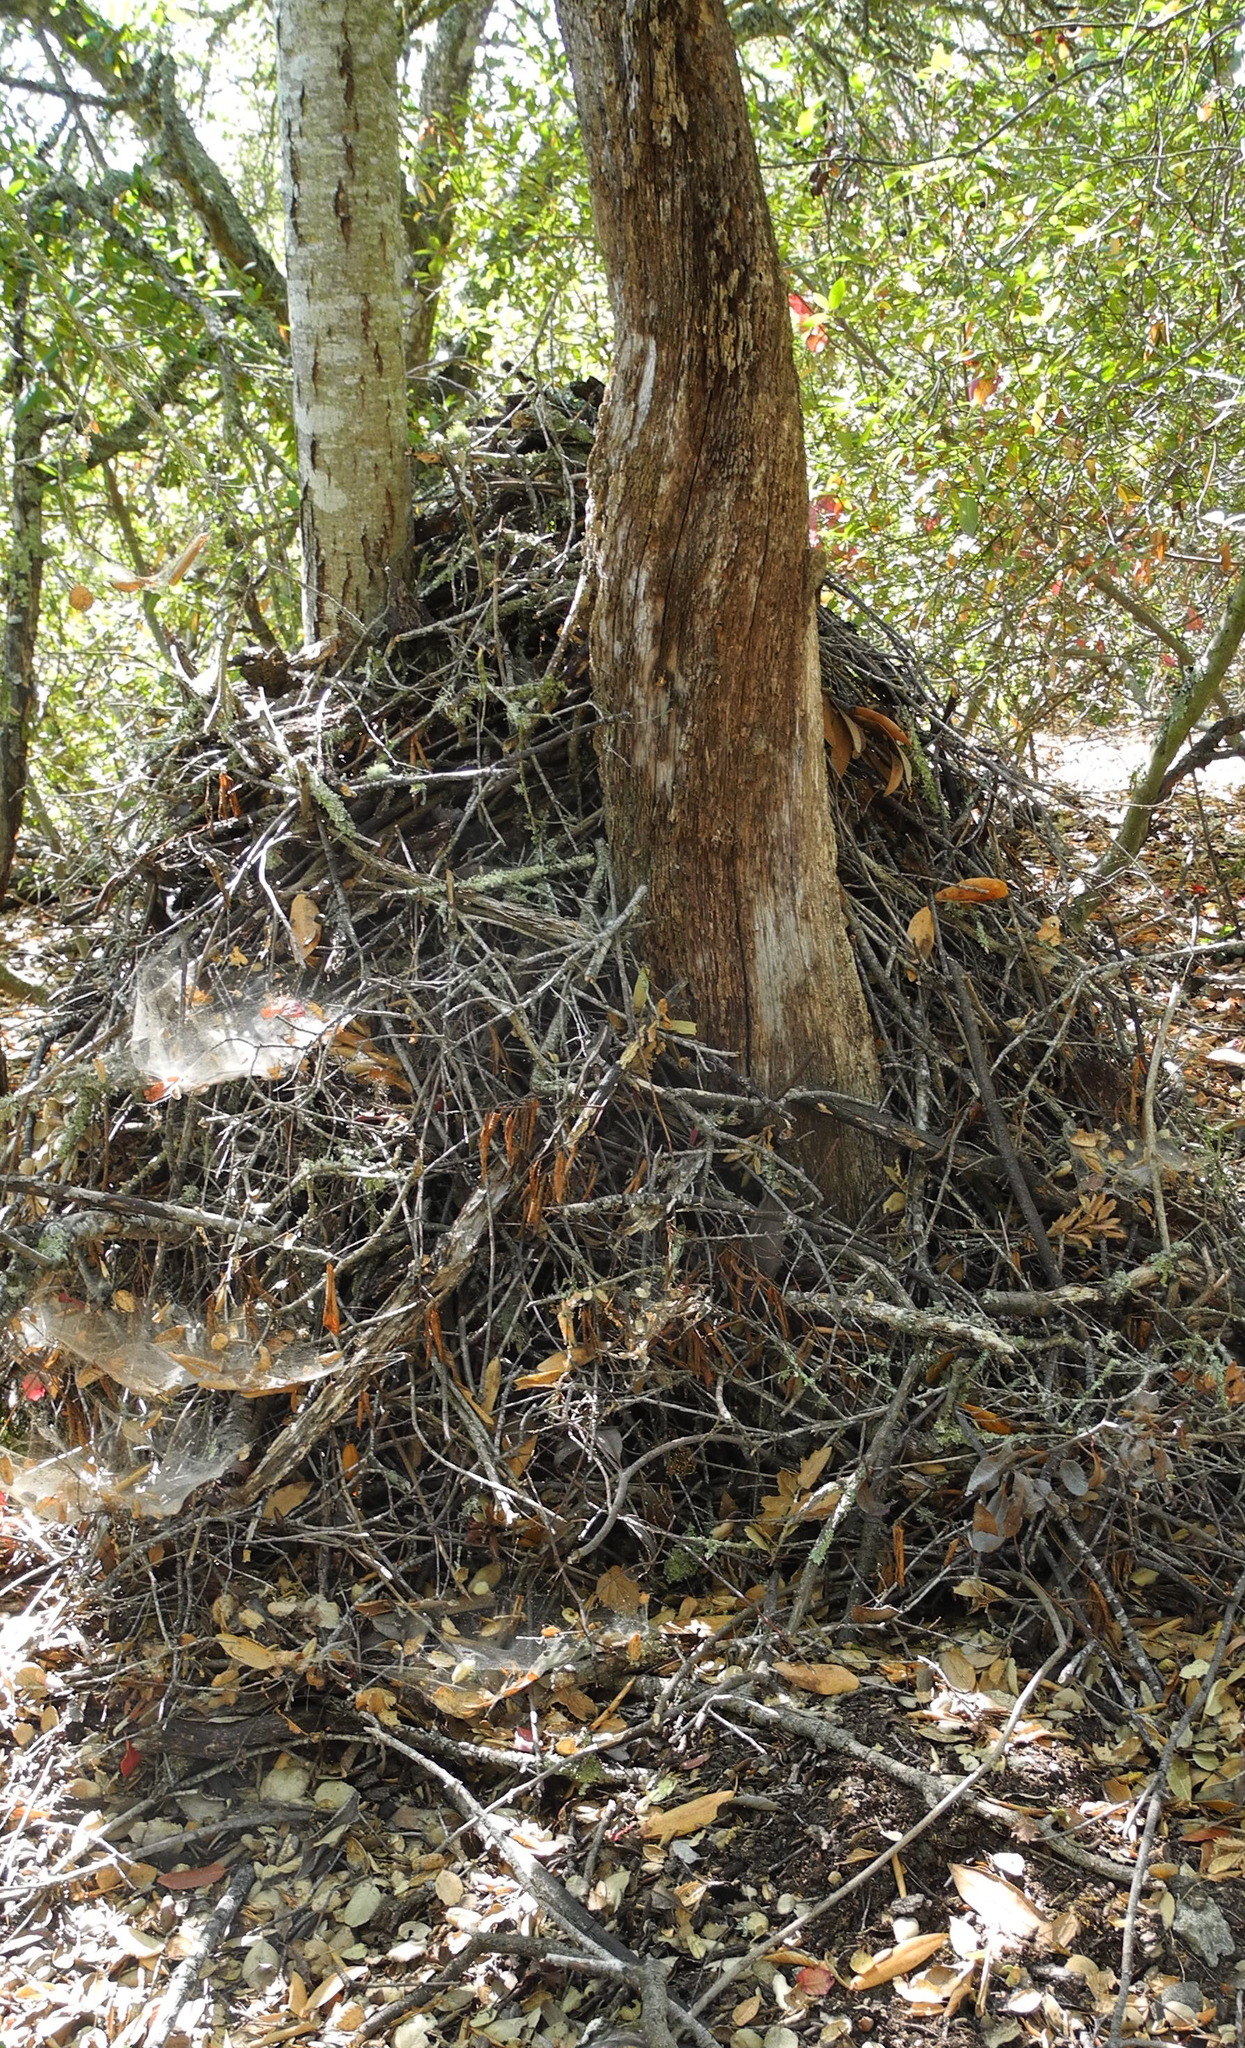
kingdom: Animalia
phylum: Chordata
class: Mammalia
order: Rodentia
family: Cricetidae
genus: Neotoma
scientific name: Neotoma fuscipes
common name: Dusky-footed woodrat
